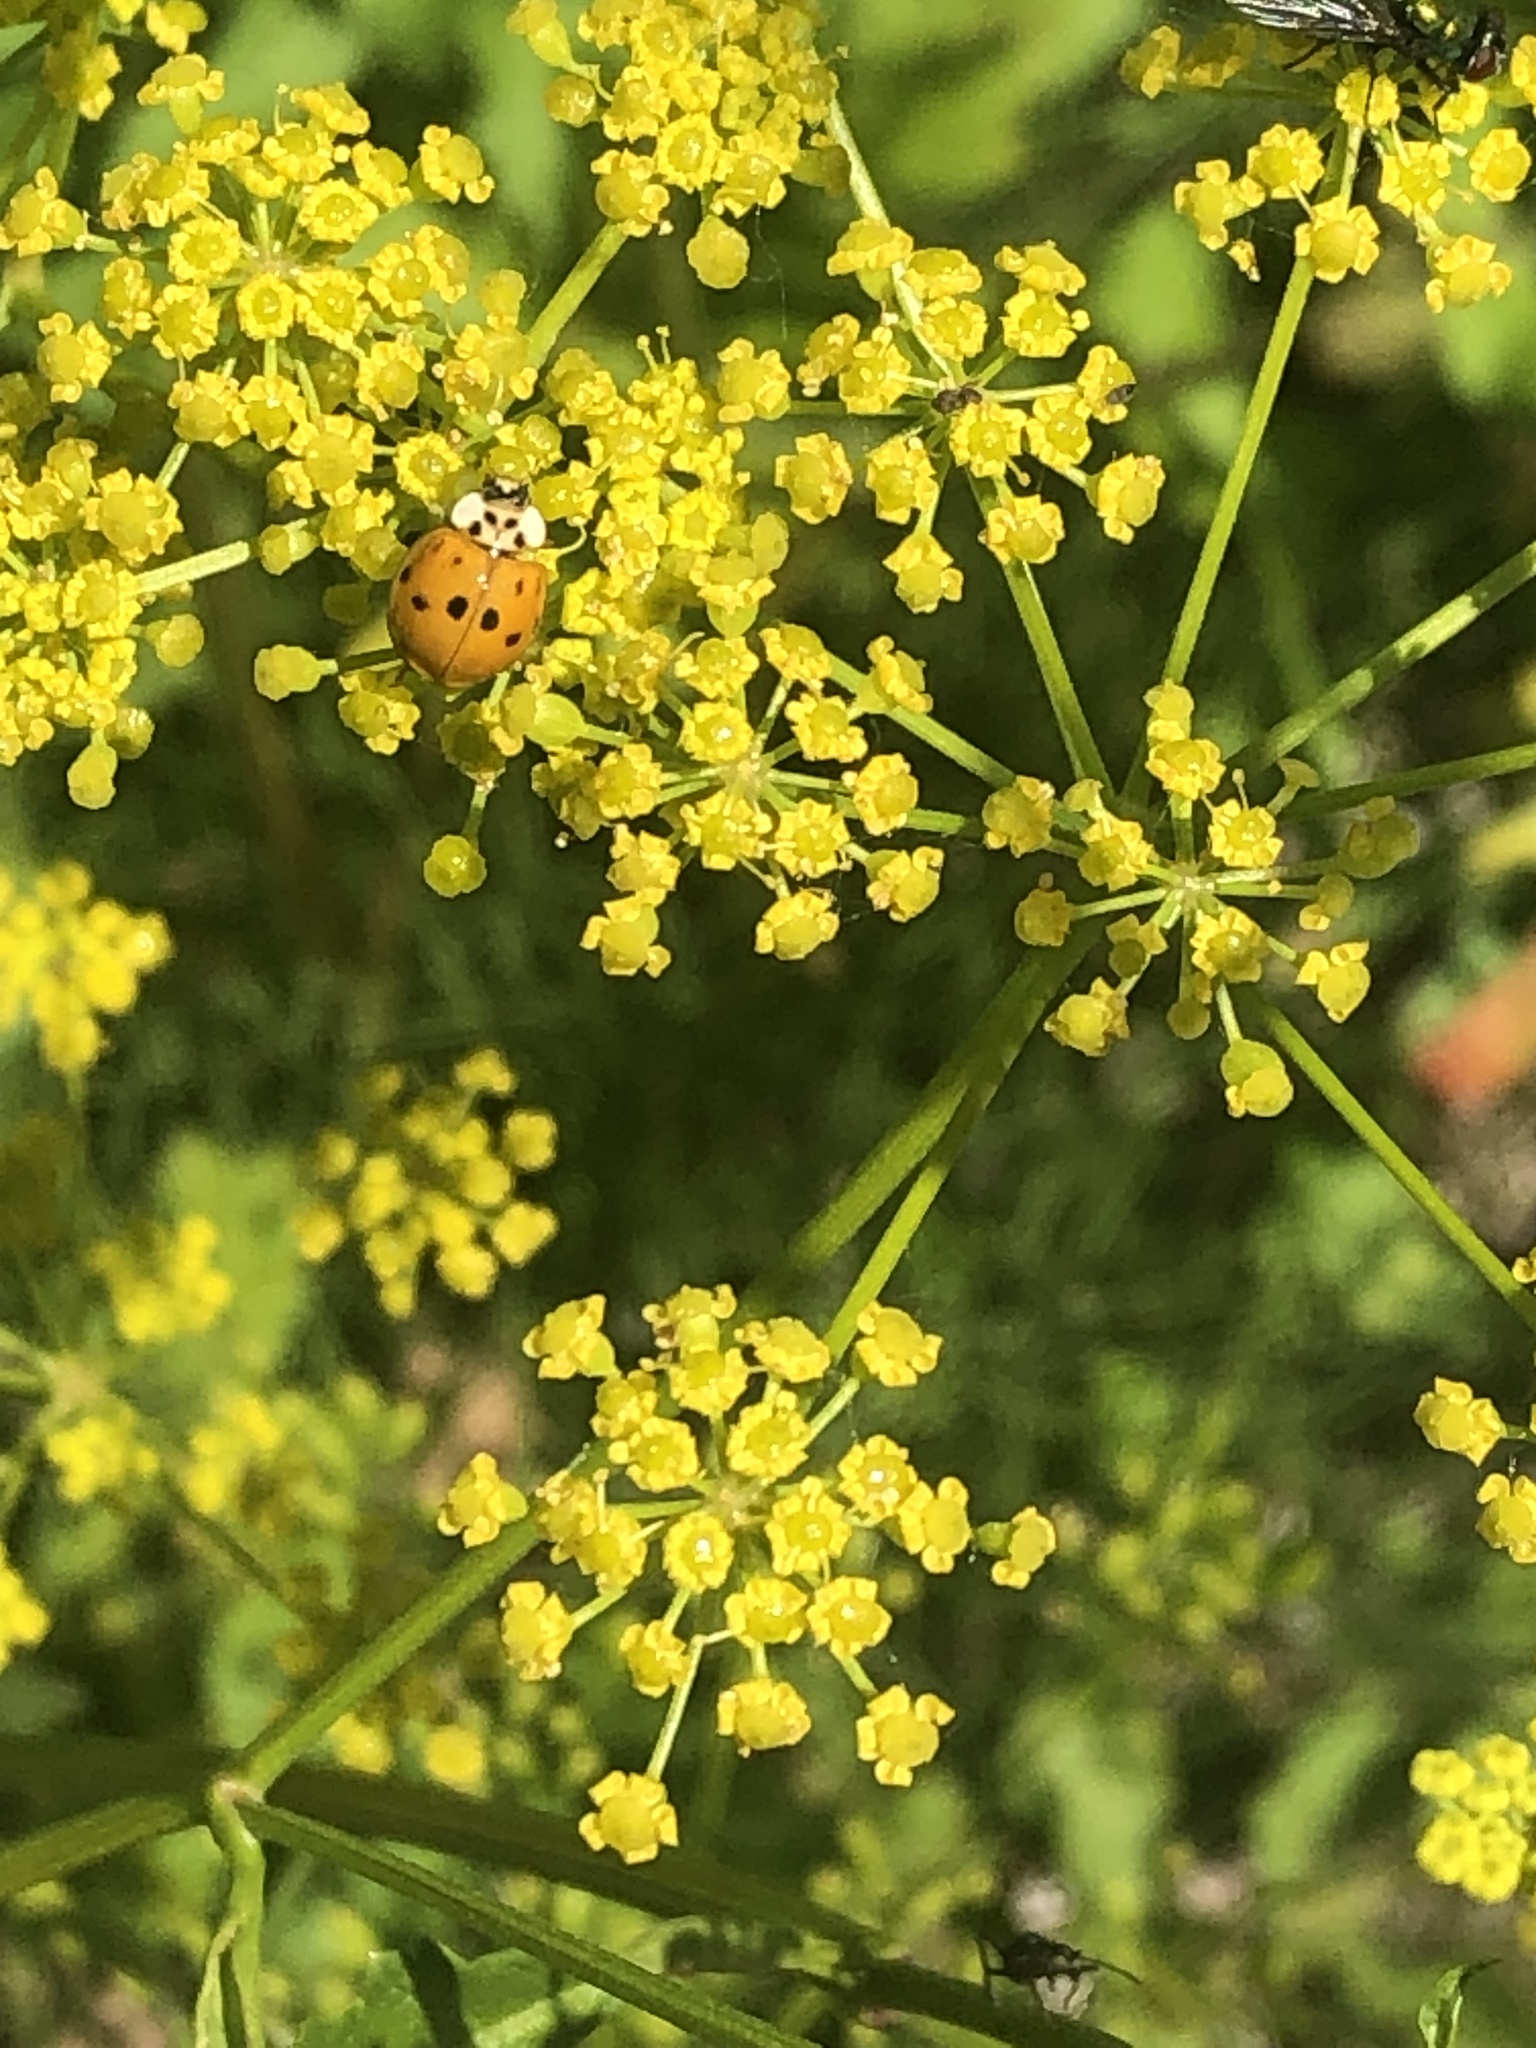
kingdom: Animalia
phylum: Arthropoda
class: Insecta
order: Coleoptera
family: Coccinellidae
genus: Harmonia
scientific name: Harmonia axyridis
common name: Harlequin ladybird
